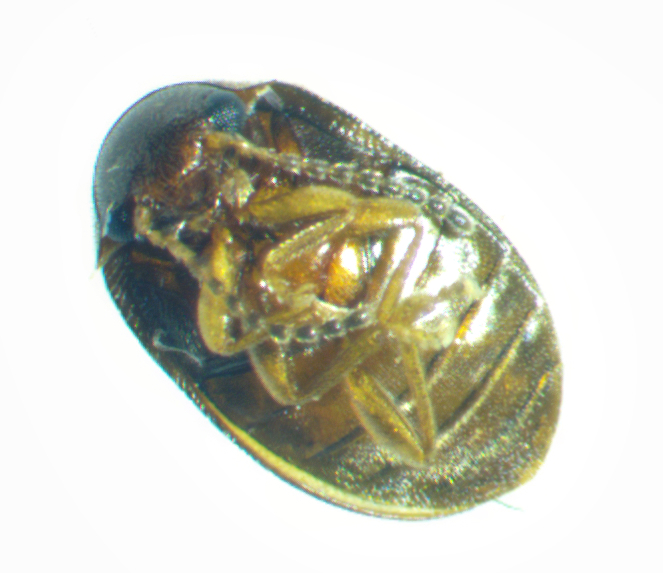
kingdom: Animalia
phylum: Arthropoda
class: Insecta
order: Coleoptera
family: Scirtidae
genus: Contacyphon
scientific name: Contacyphon
